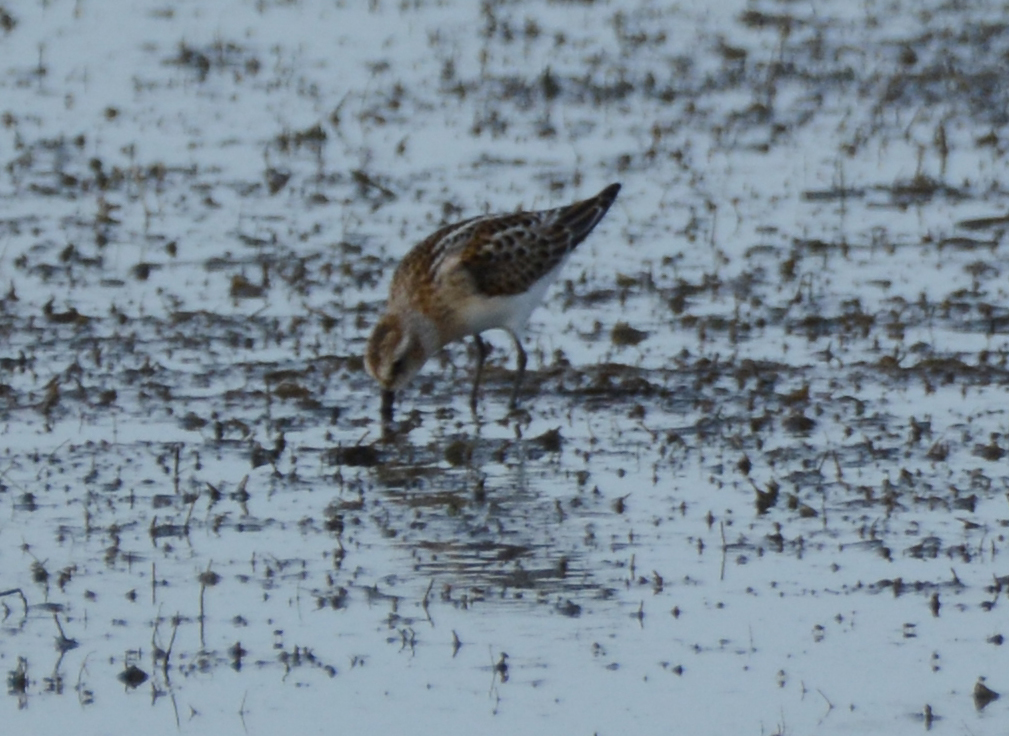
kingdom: Animalia
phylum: Chordata
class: Aves
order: Charadriiformes
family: Scolopacidae
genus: Calidris
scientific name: Calidris minuta
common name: Little stint
